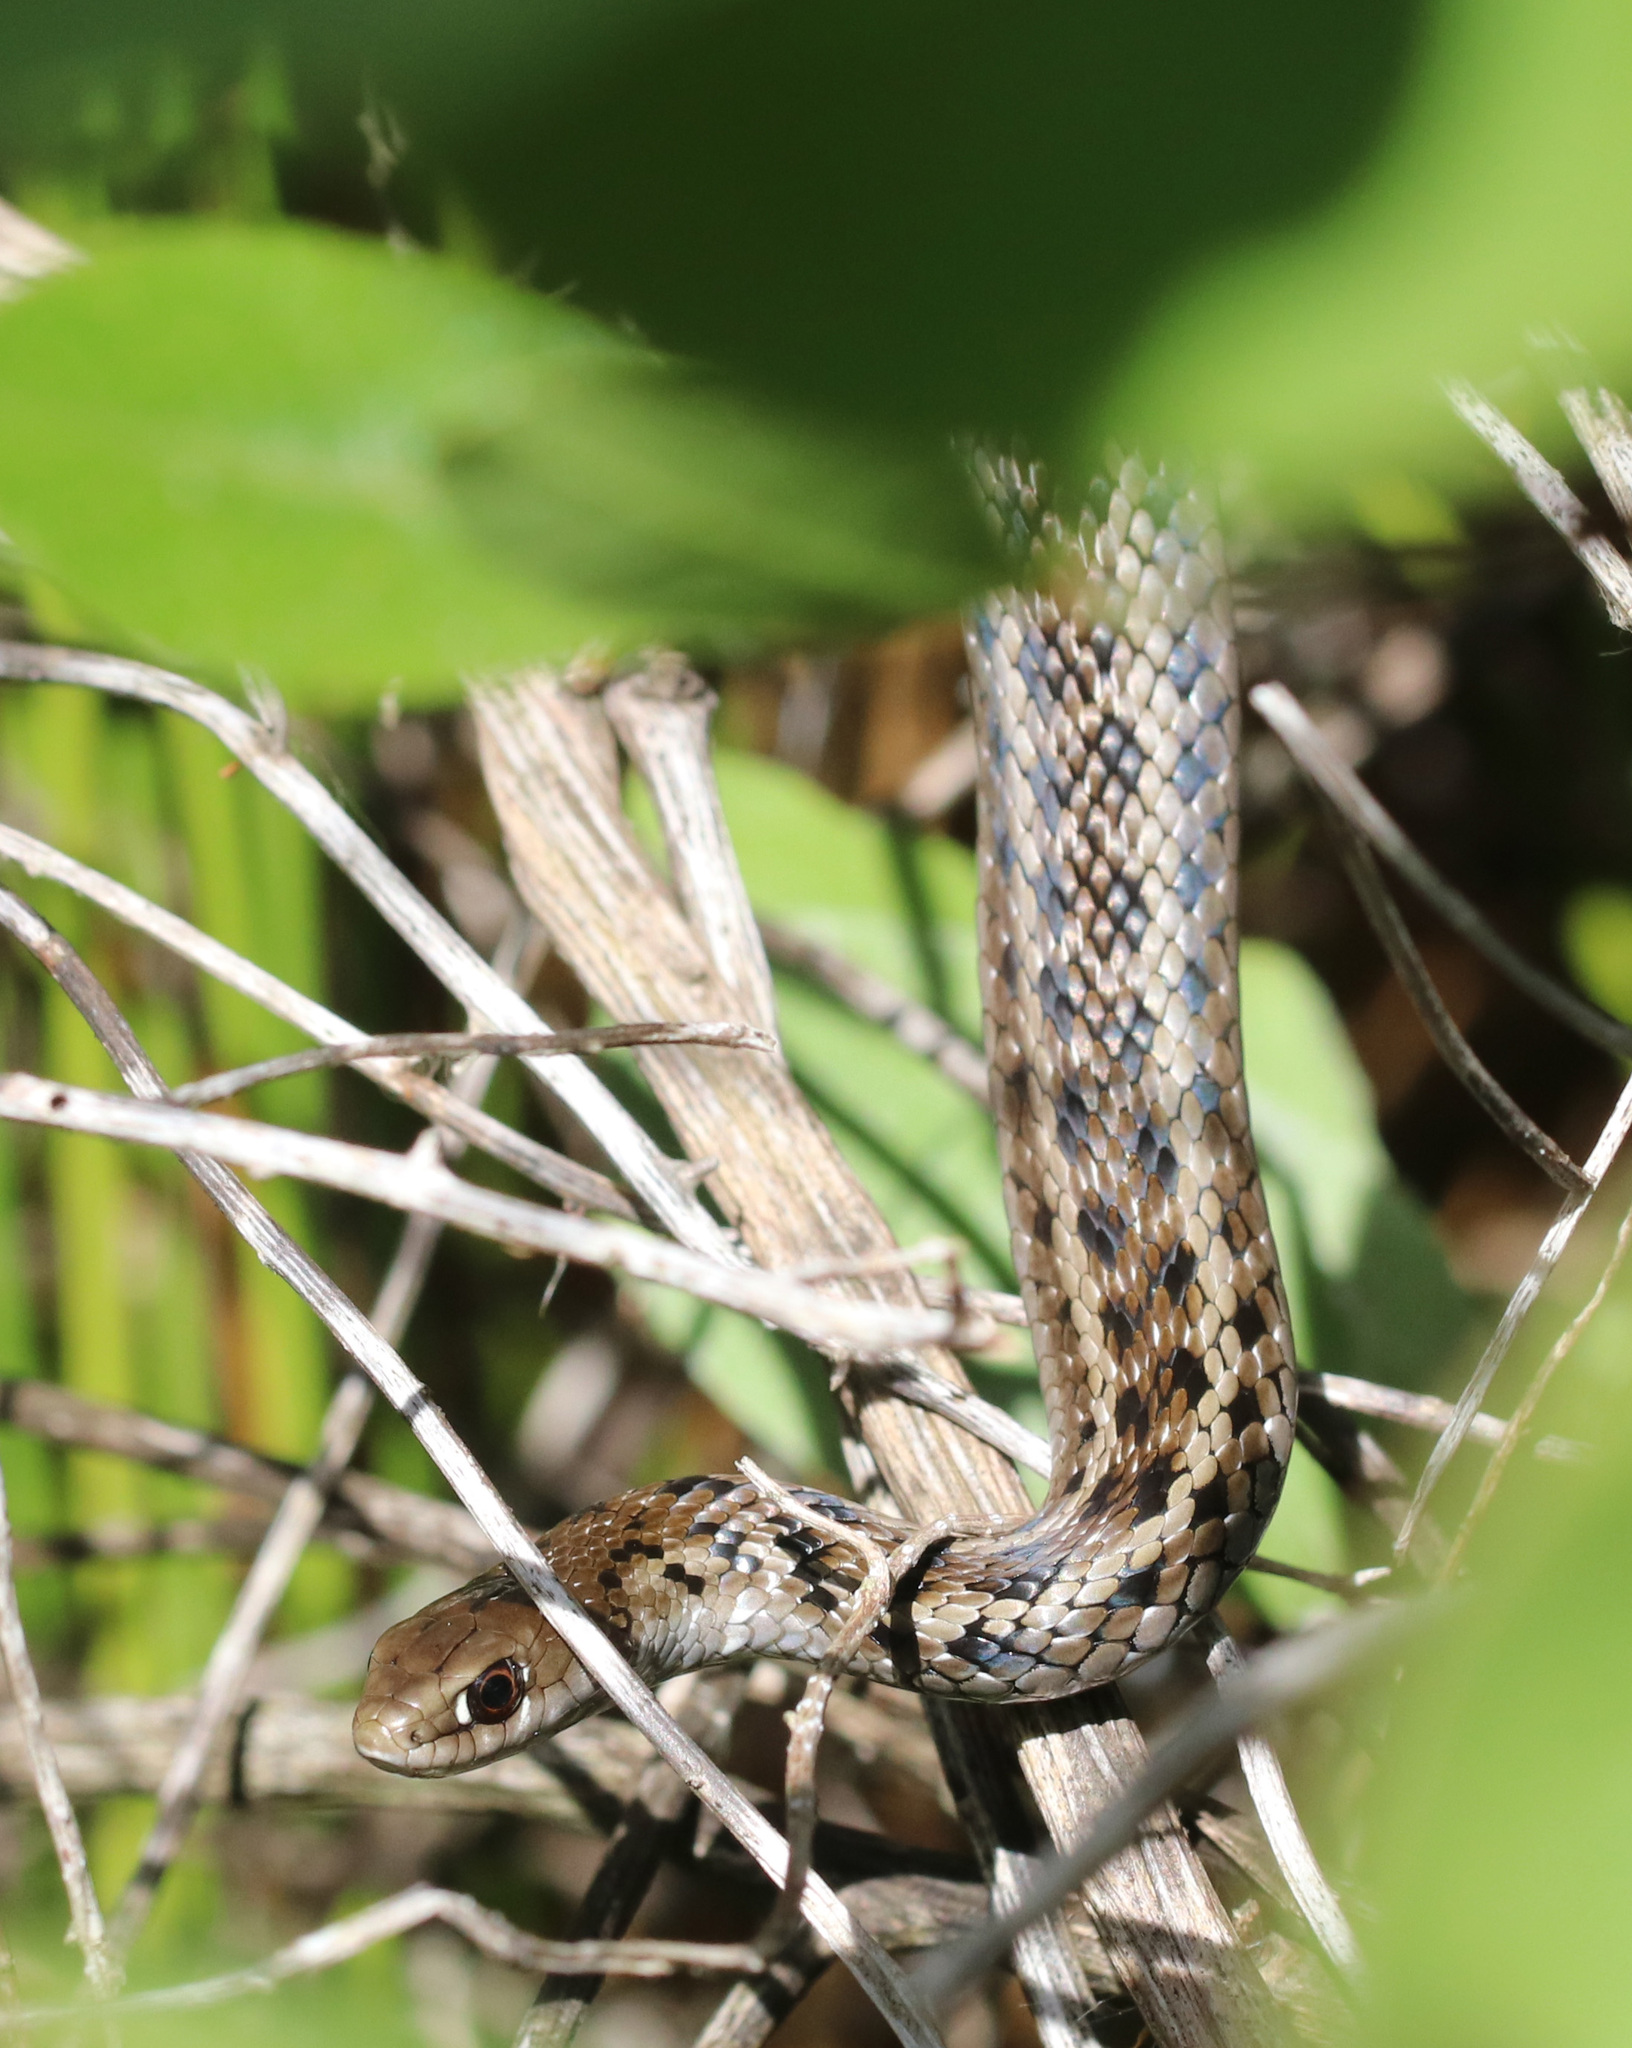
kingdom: Animalia
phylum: Chordata
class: Squamata
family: Pseudoxyrhophiidae
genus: Amplorhinus
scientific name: Amplorhinus multimaculatus
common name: Many-spotted snake
